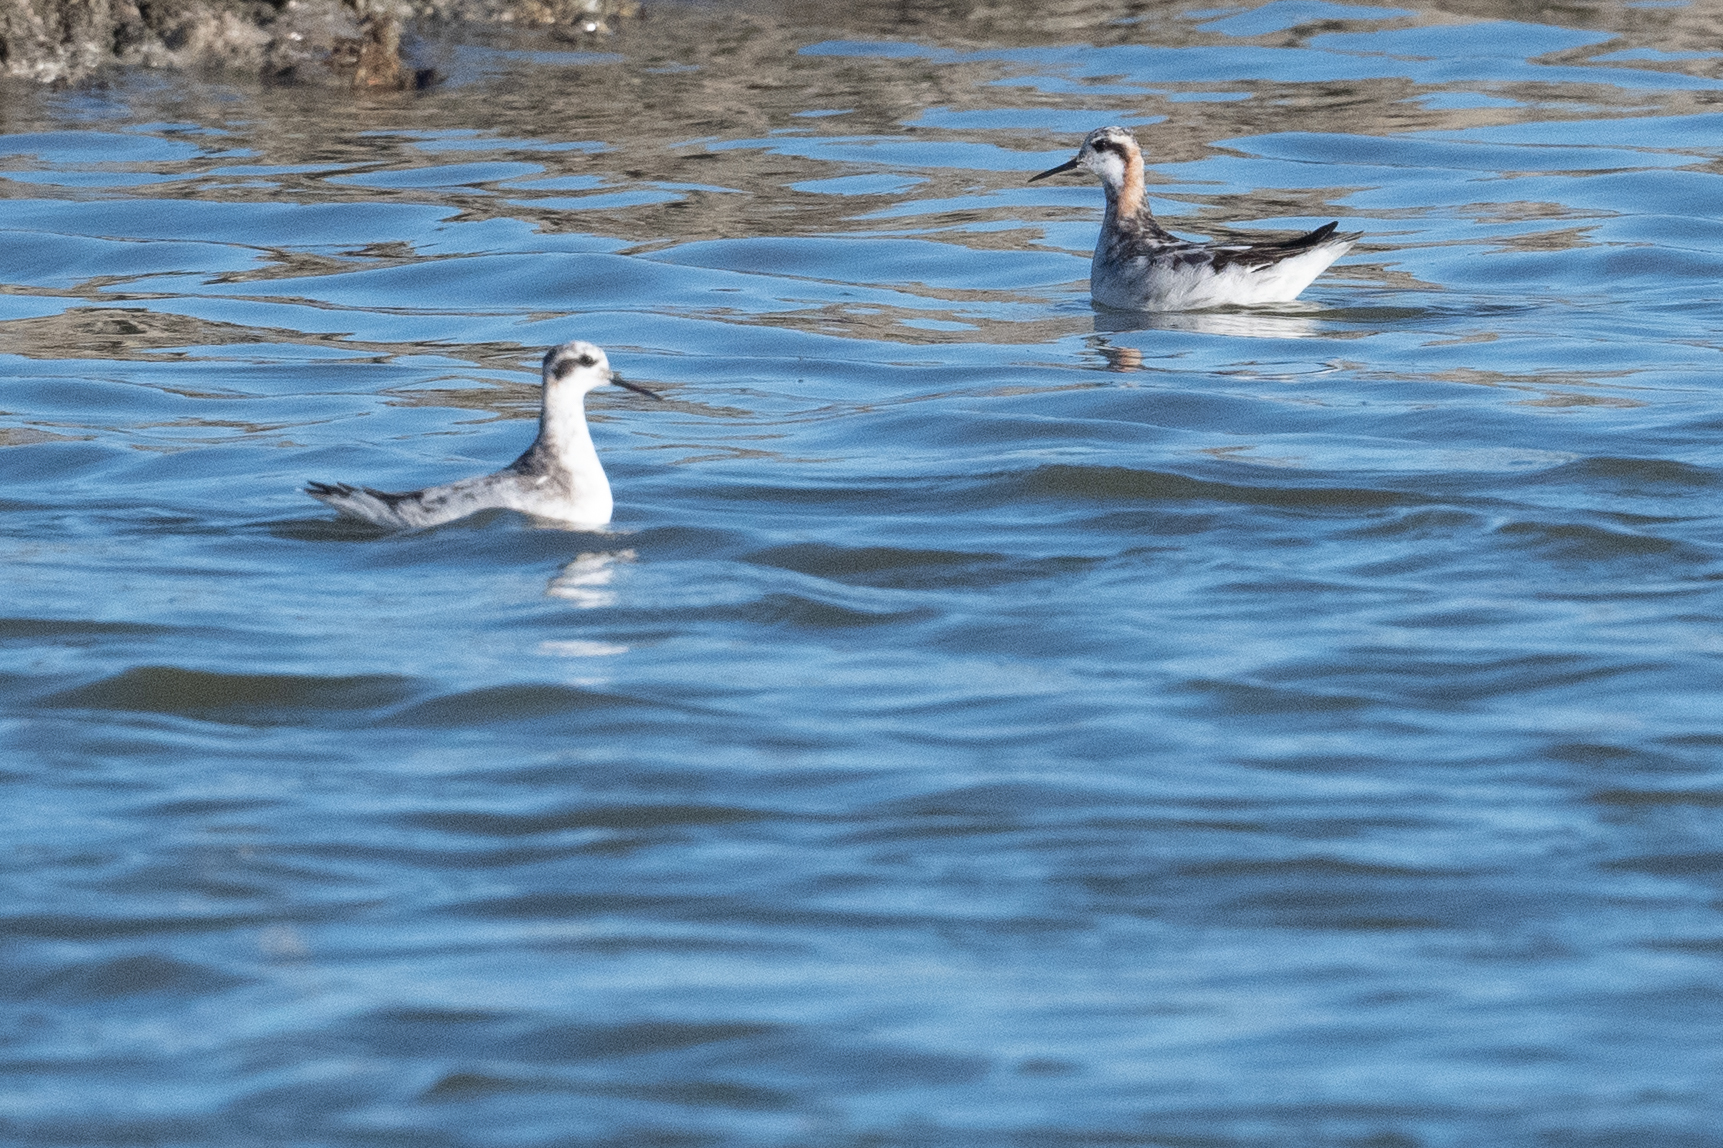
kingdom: Animalia
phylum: Chordata
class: Aves
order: Charadriiformes
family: Scolopacidae
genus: Phalaropus
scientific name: Phalaropus lobatus
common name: Red-necked phalarope
